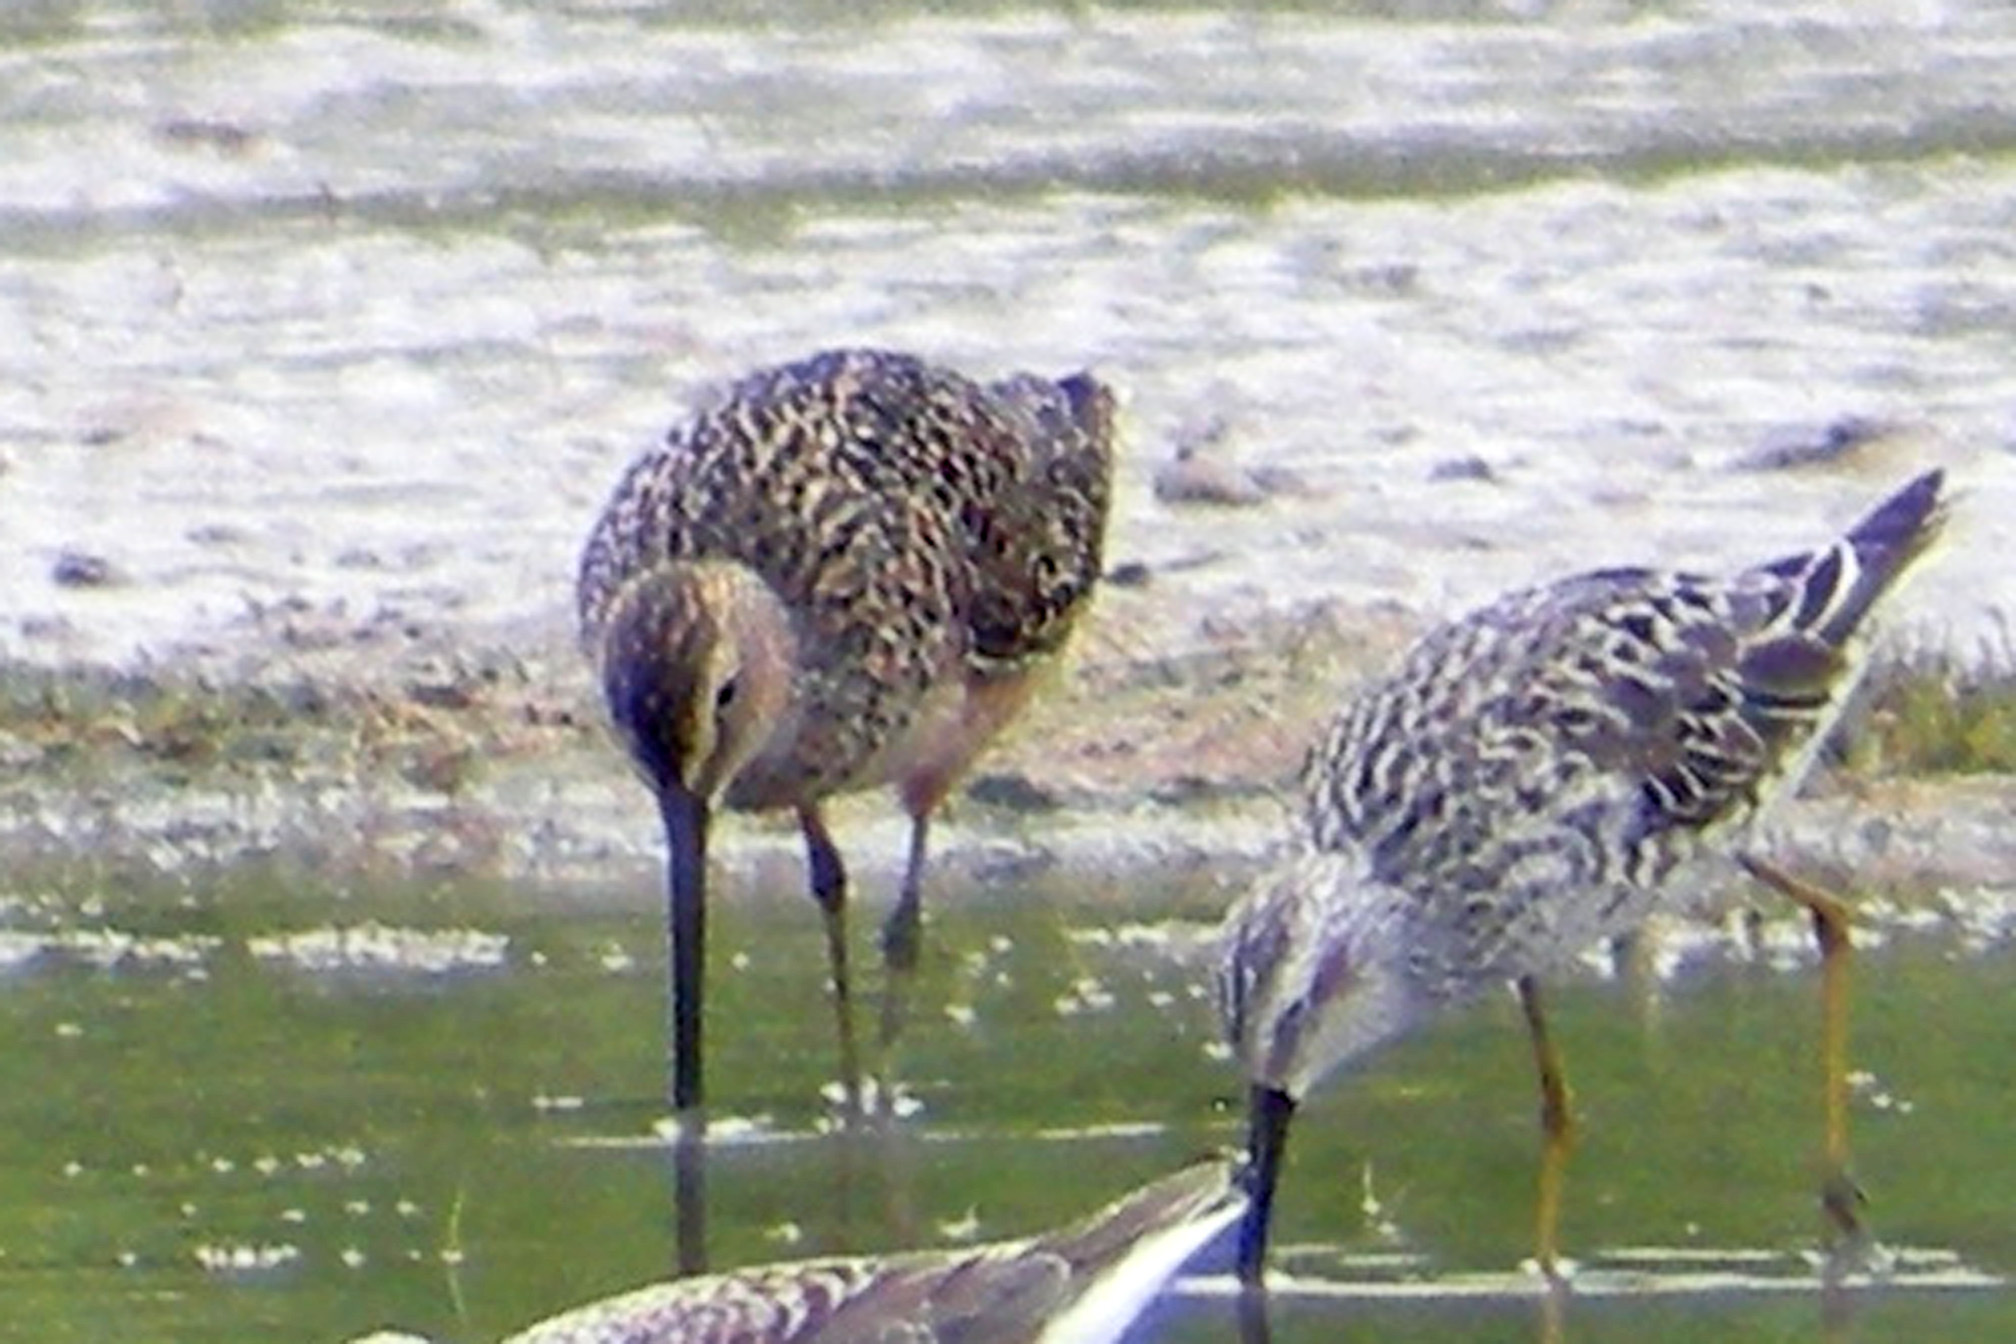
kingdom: Animalia
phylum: Chordata
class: Aves
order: Charadriiformes
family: Scolopacidae
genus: Limnodromus
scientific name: Limnodromus scolopaceus
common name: Long-billed dowitcher
